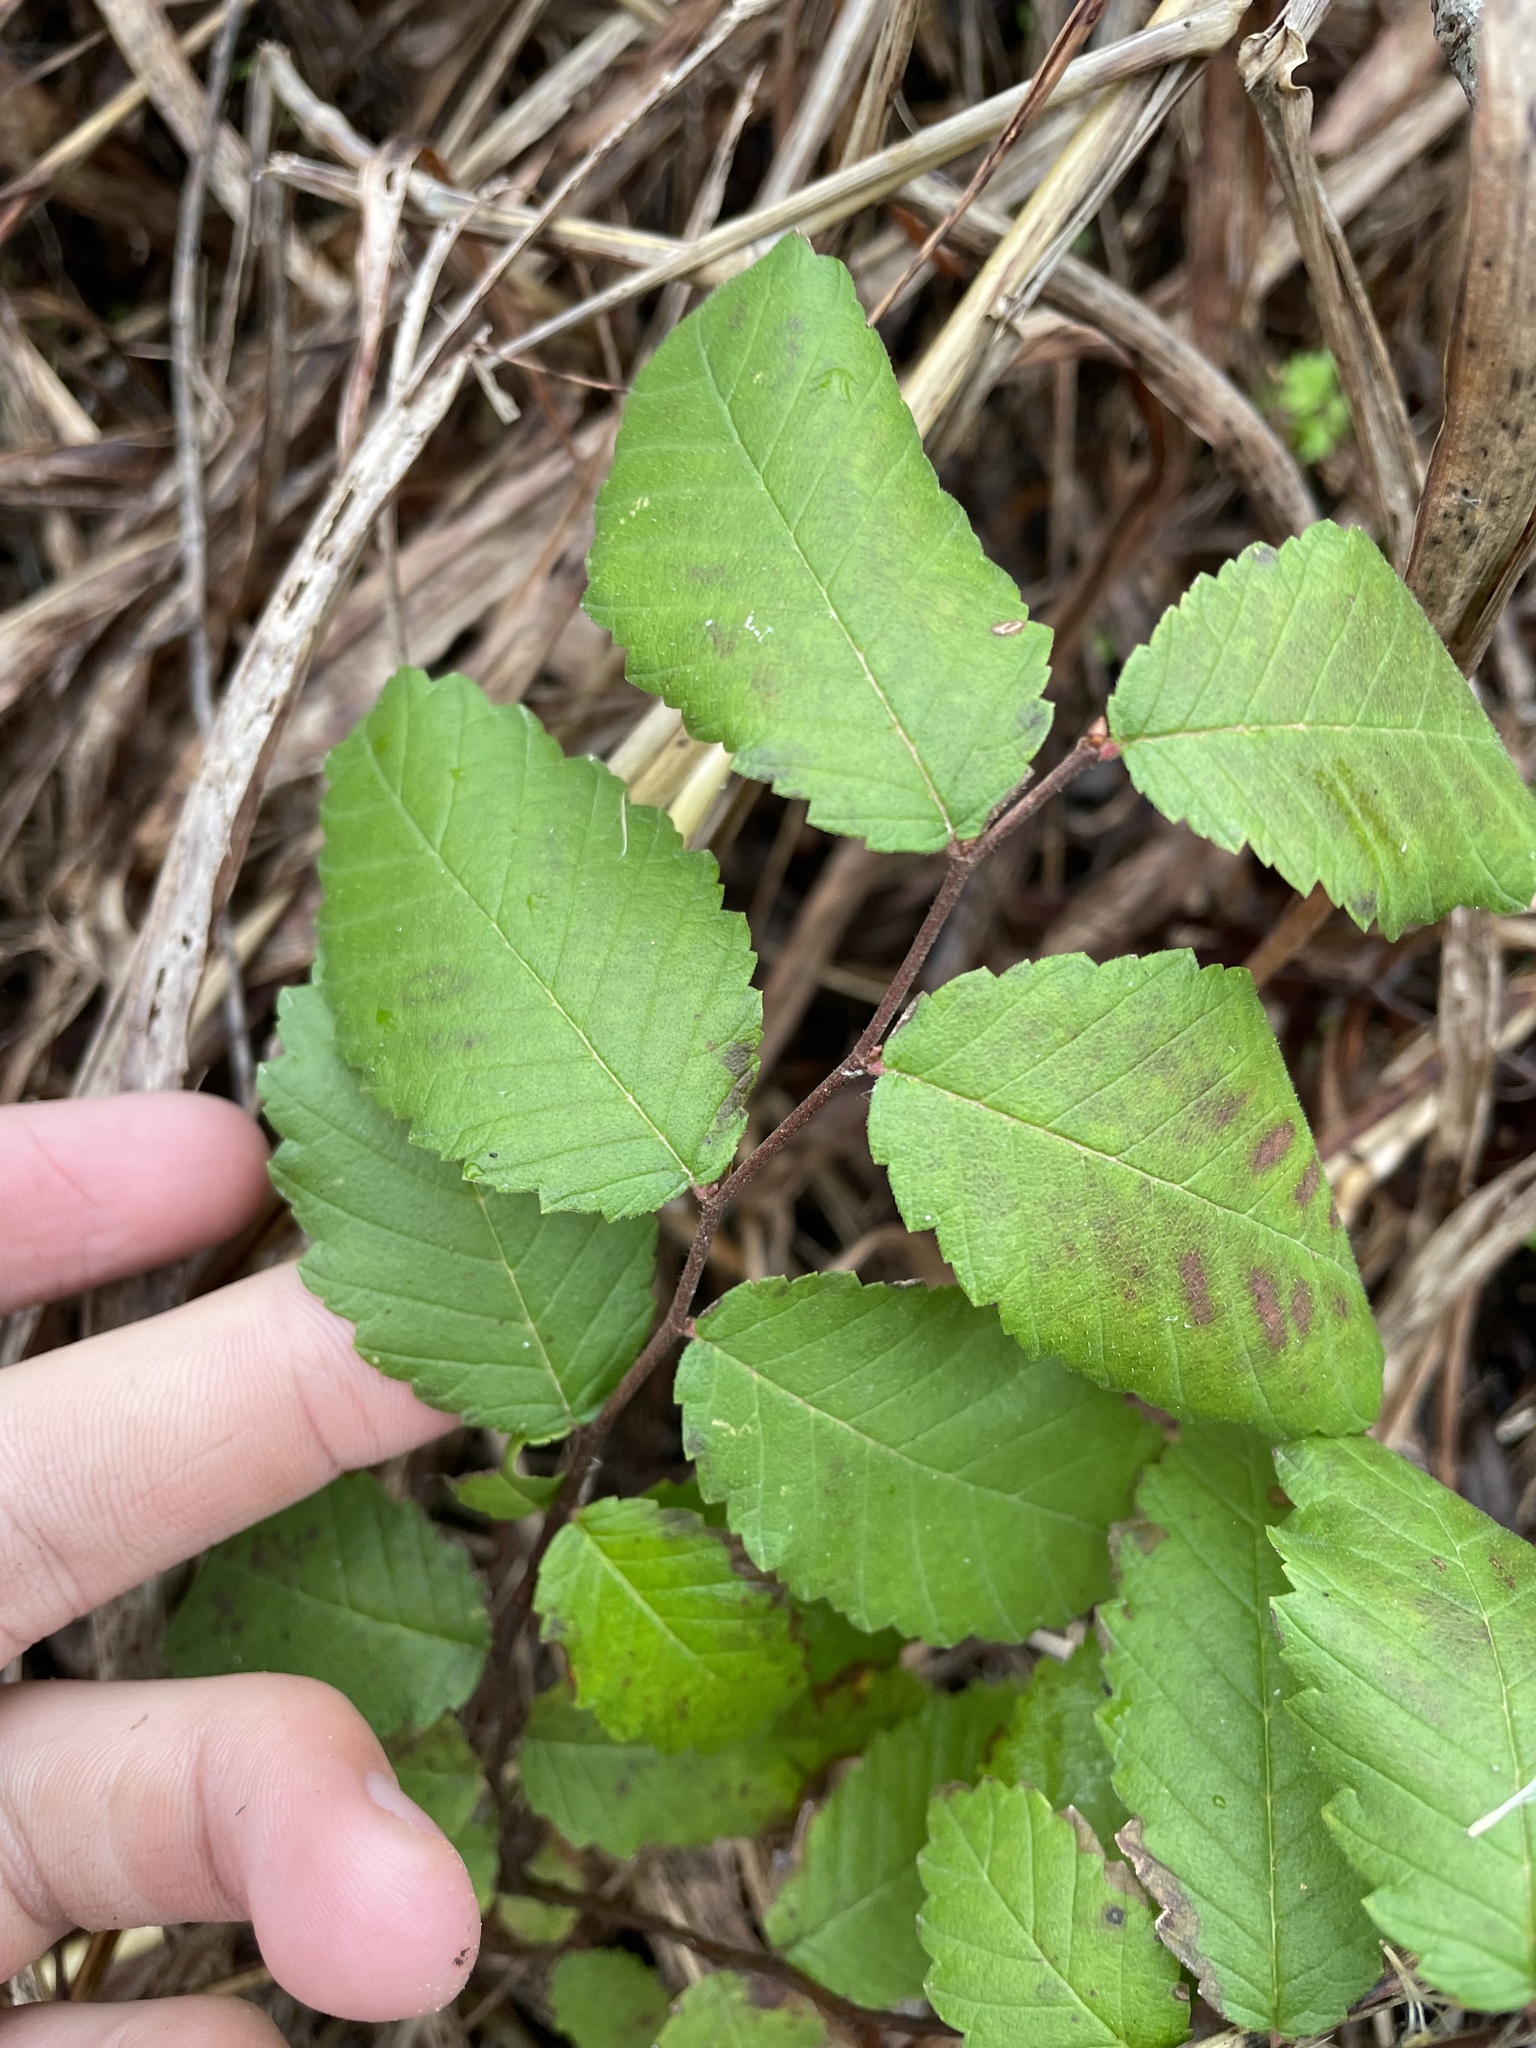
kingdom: Plantae
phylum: Tracheophyta
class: Magnoliopsida
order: Rosales
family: Ulmaceae
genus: Ulmus
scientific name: Ulmus crassifolia
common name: Basket elm
